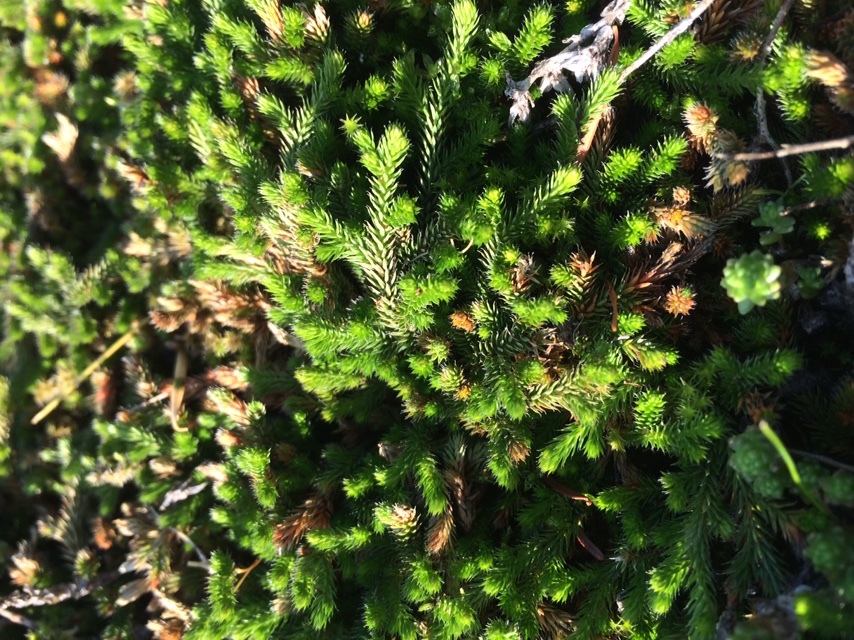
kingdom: Plantae
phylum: Tracheophyta
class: Lycopodiopsida
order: Selaginellales
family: Selaginellaceae
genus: Selaginella
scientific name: Selaginella wallacei
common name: Wallace's selaginella
